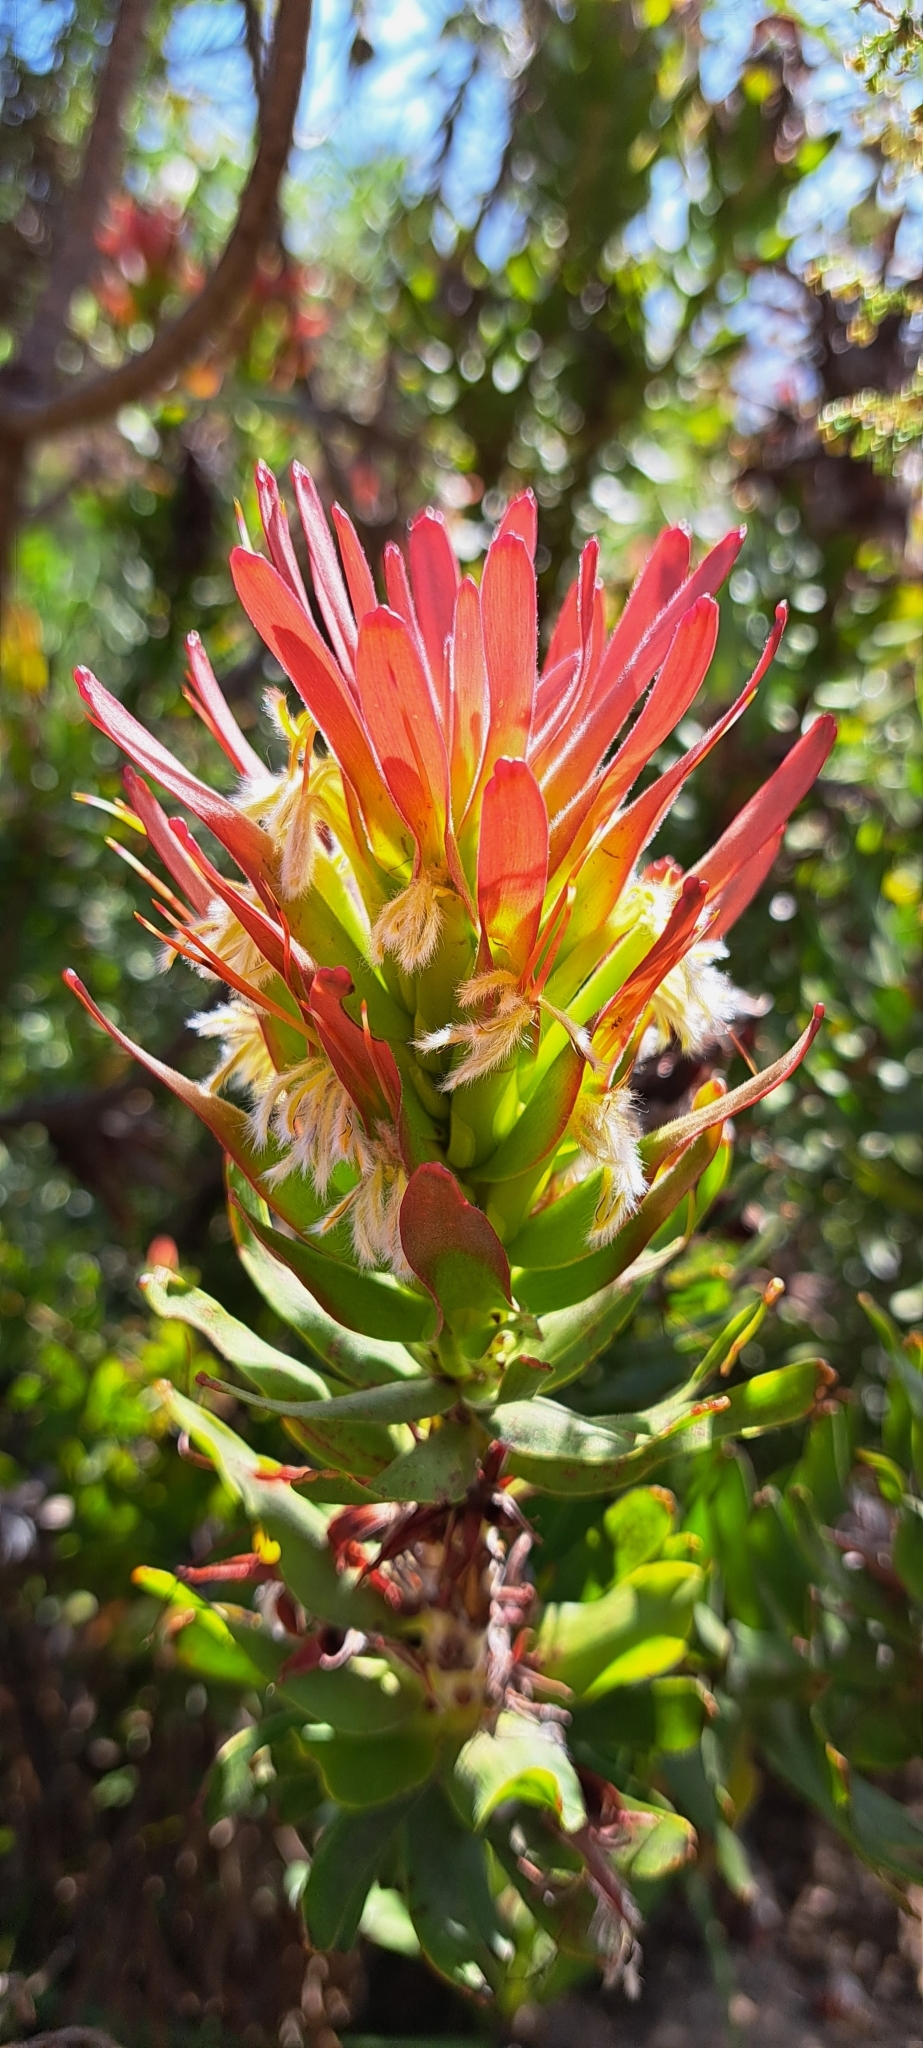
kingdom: Plantae
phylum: Tracheophyta
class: Magnoliopsida
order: Proteales
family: Proteaceae
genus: Mimetes
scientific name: Mimetes cucullatus
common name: Common pagoda
